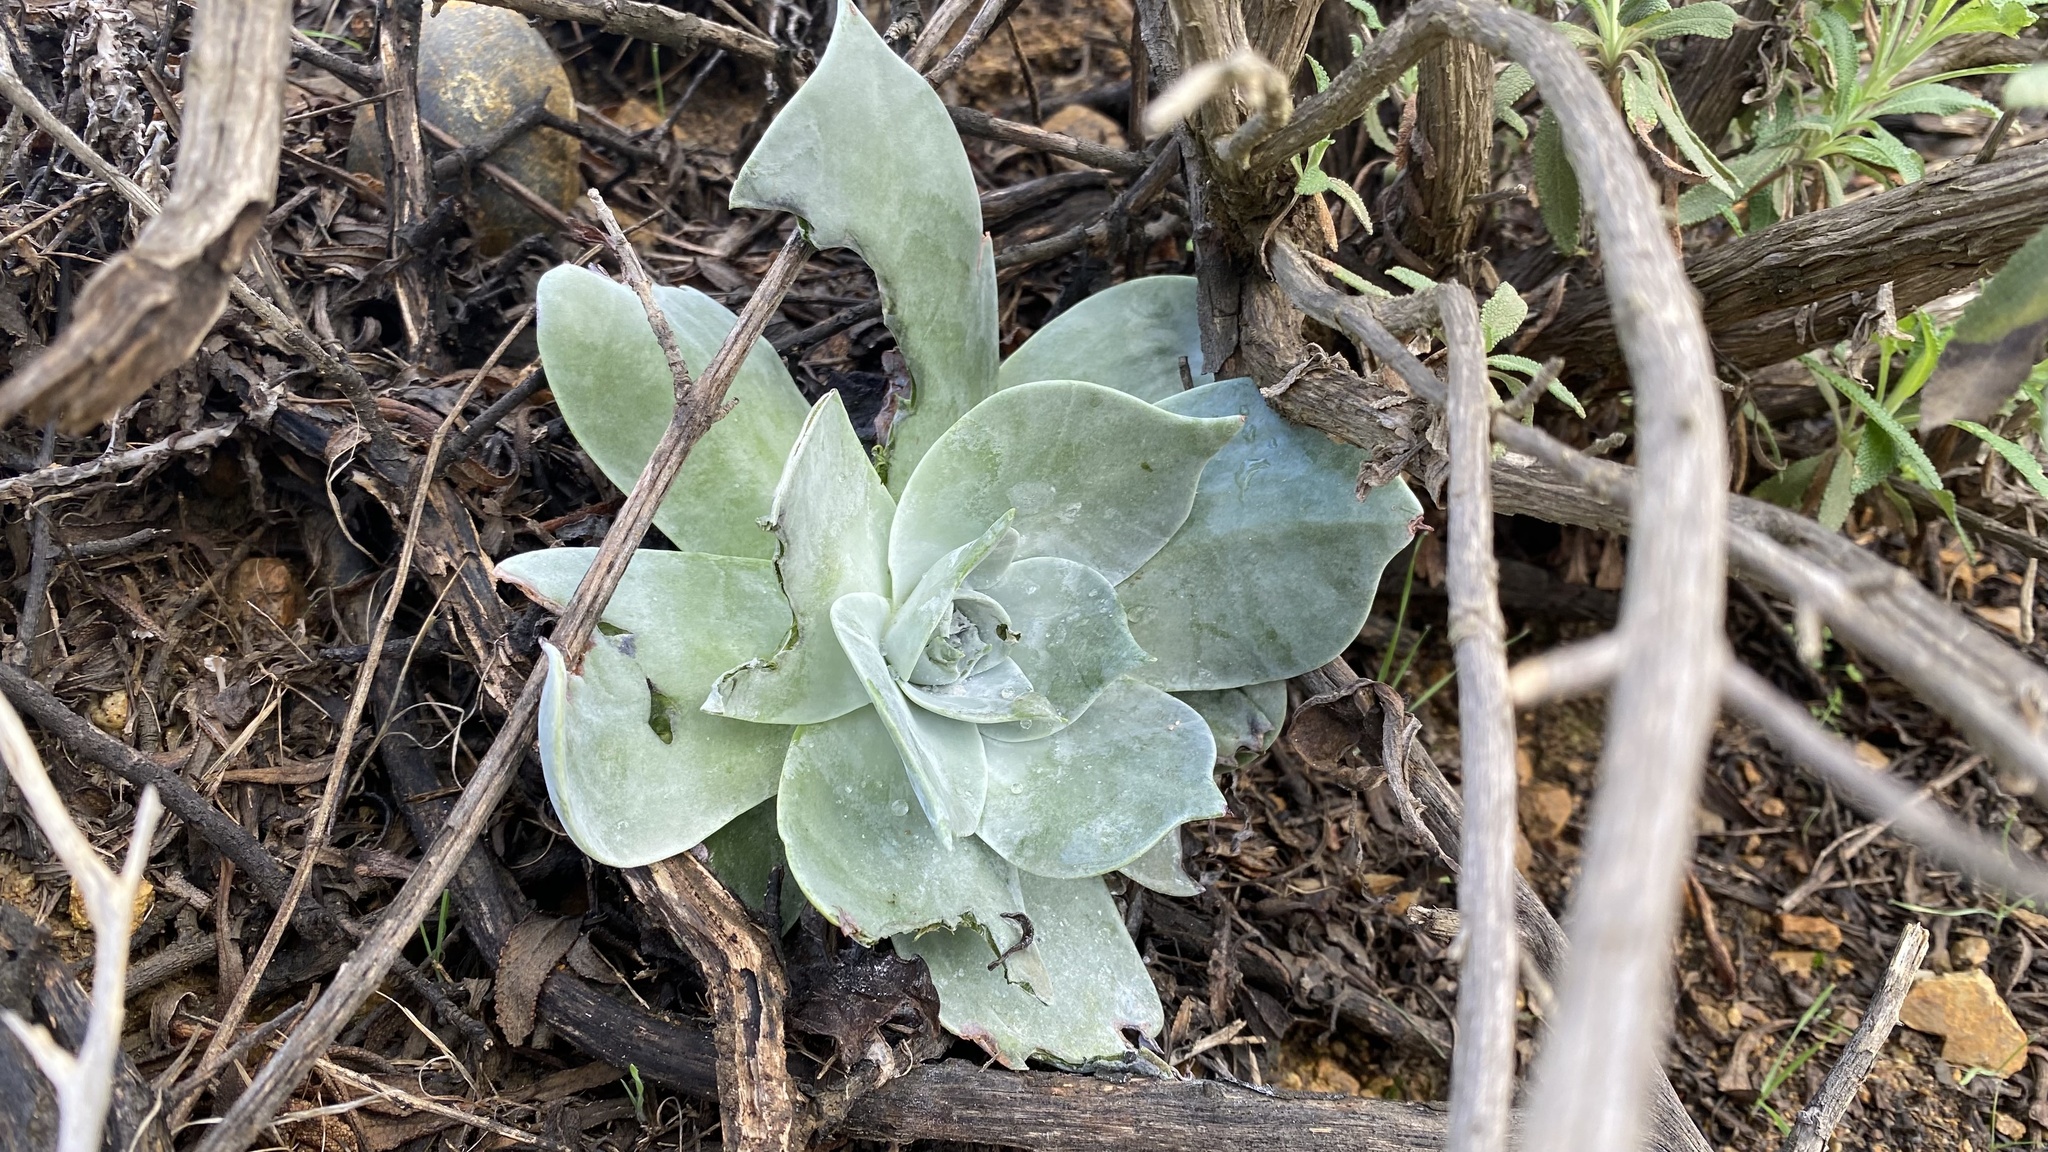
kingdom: Plantae
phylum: Tracheophyta
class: Magnoliopsida
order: Saxifragales
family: Crassulaceae
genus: Dudleya
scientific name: Dudleya pulverulenta
